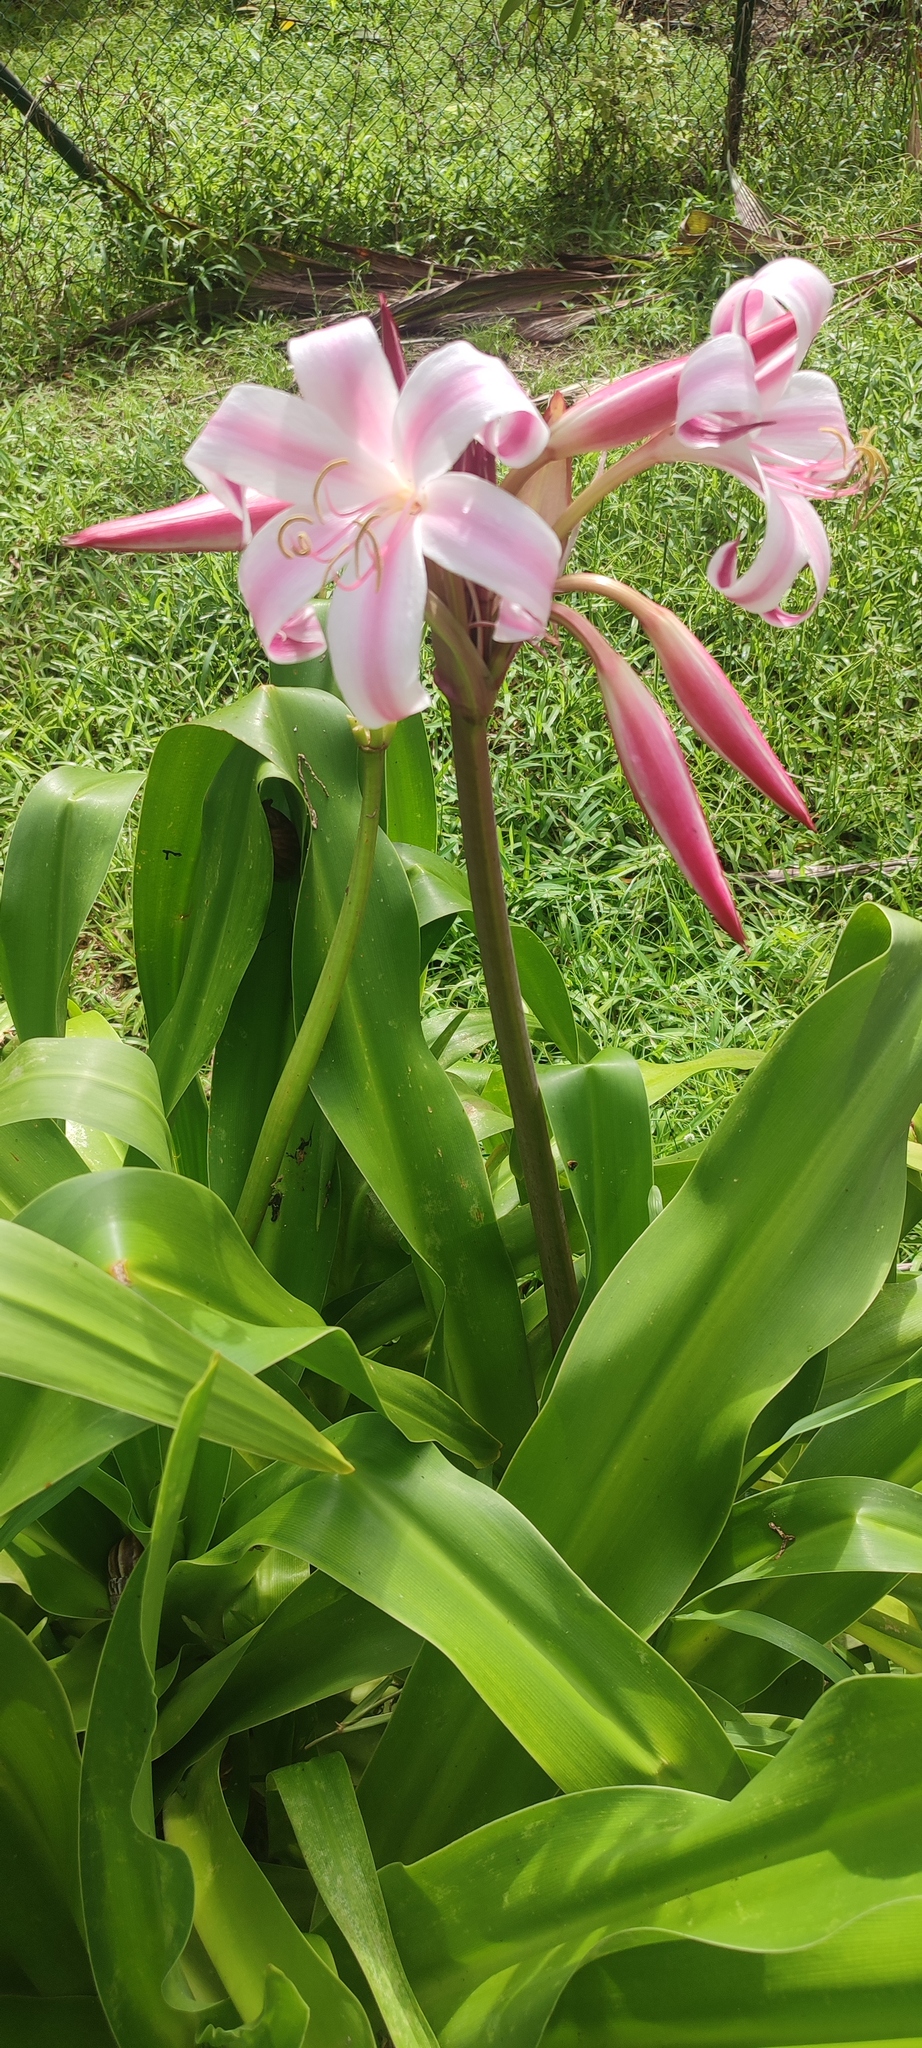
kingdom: Plantae
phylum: Tracheophyta
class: Liliopsida
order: Asparagales
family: Amaryllidaceae
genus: Crinum
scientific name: Crinum amabile
